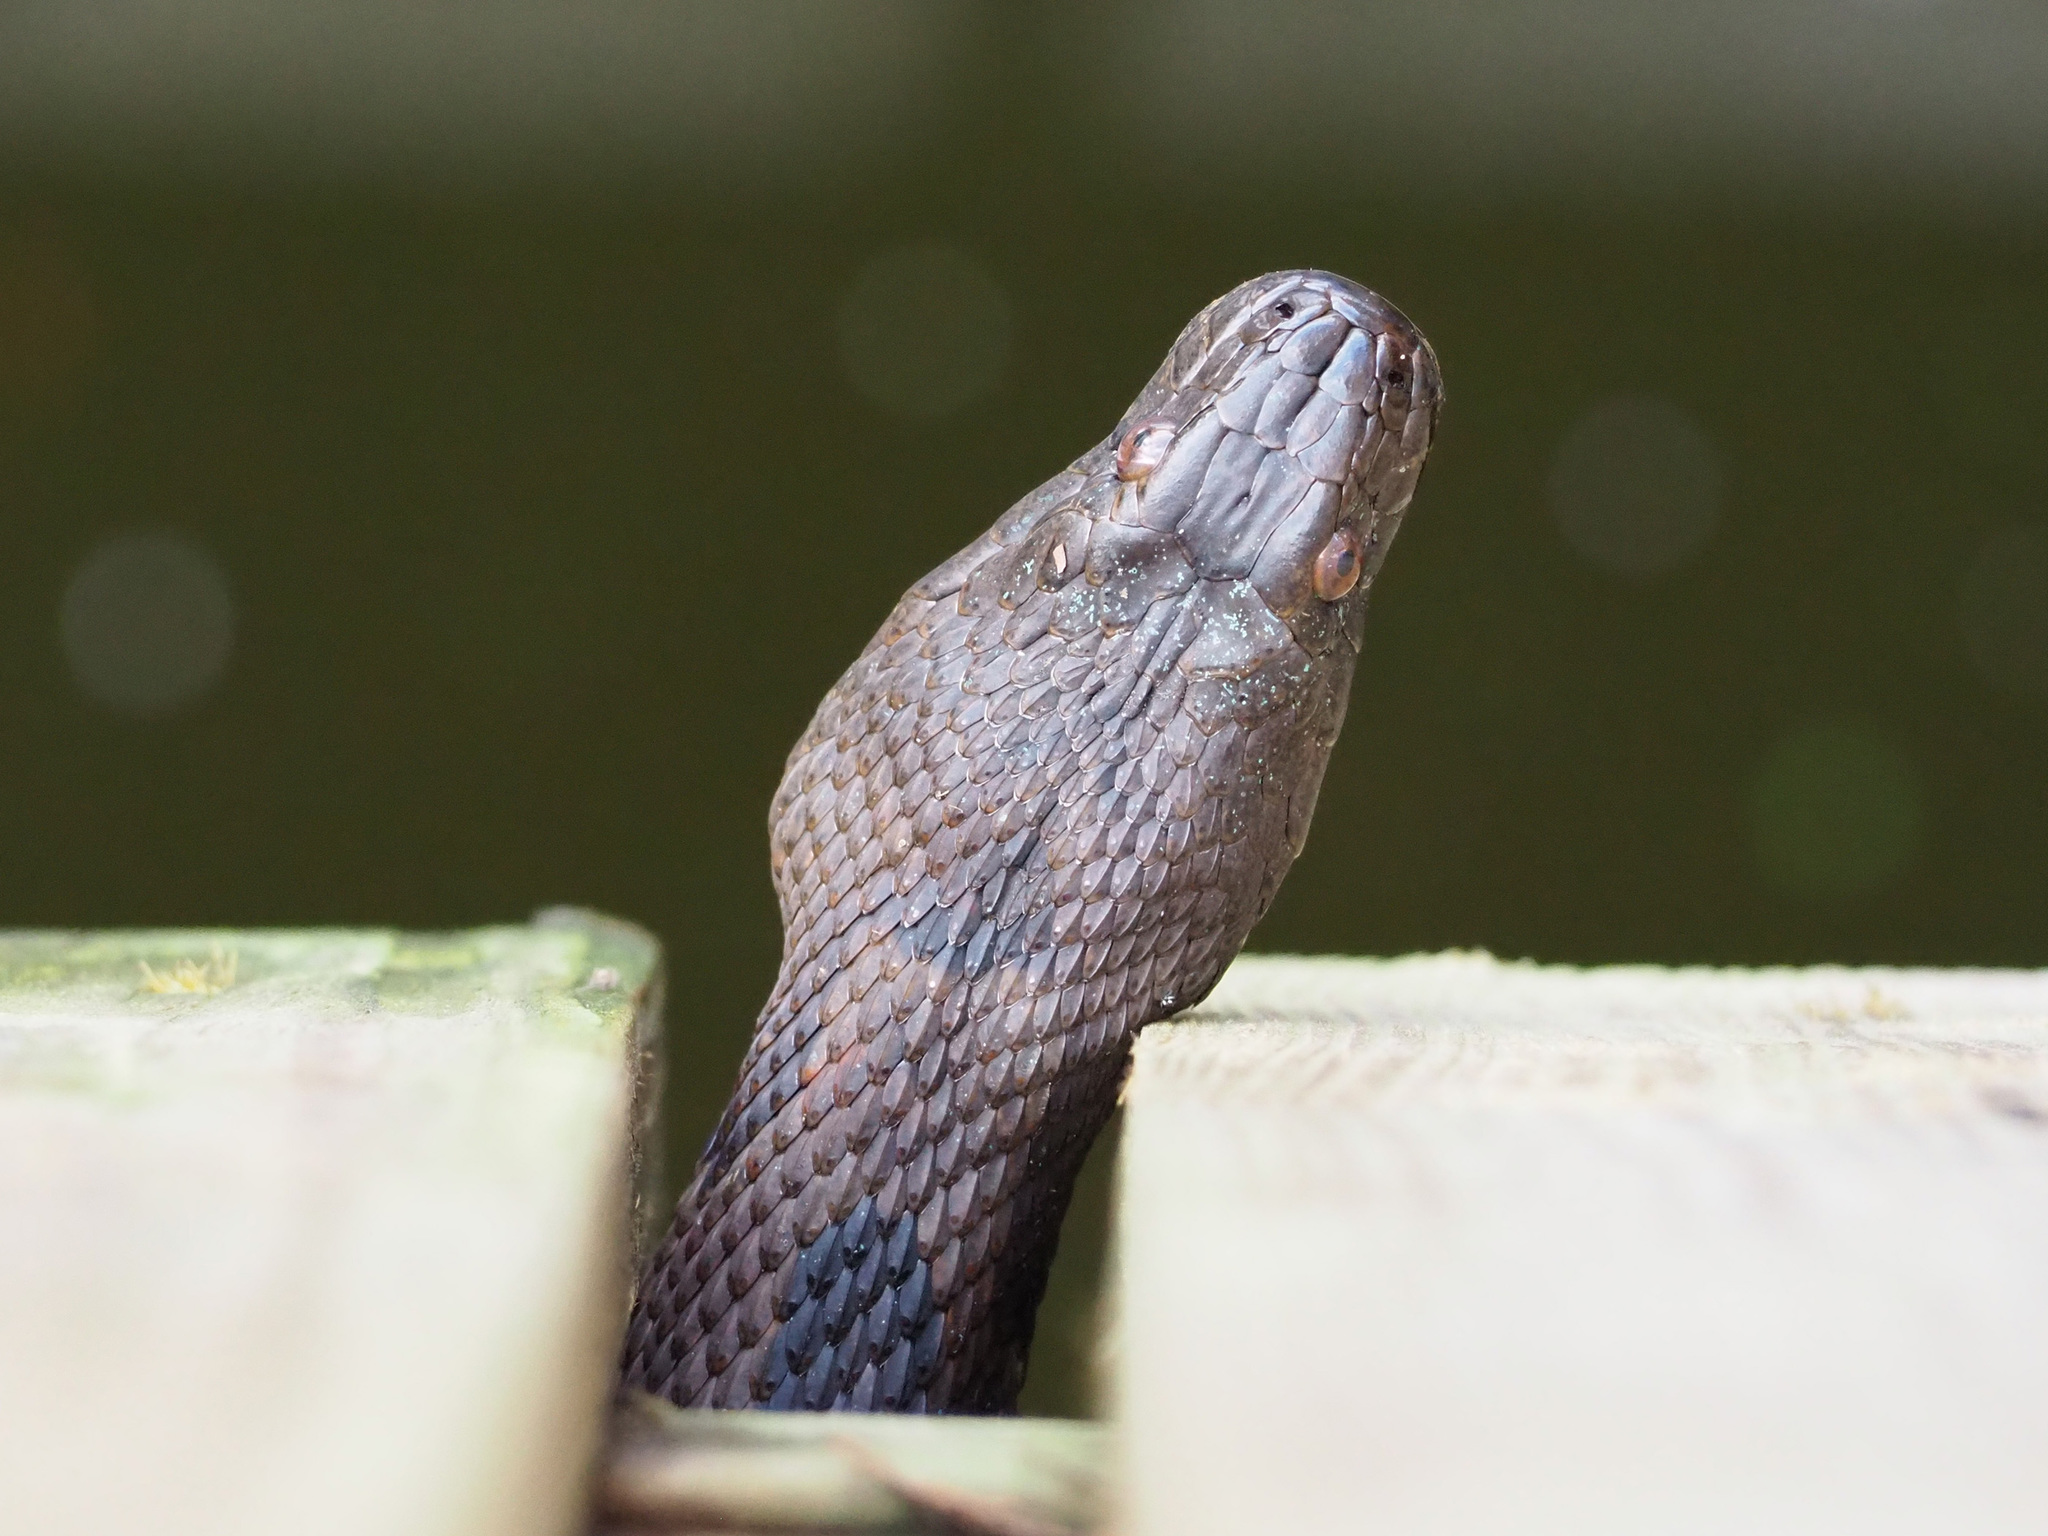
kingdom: Animalia
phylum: Chordata
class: Squamata
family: Colubridae
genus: Nerodia
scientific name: Nerodia taxispilota
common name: Brown water snake
